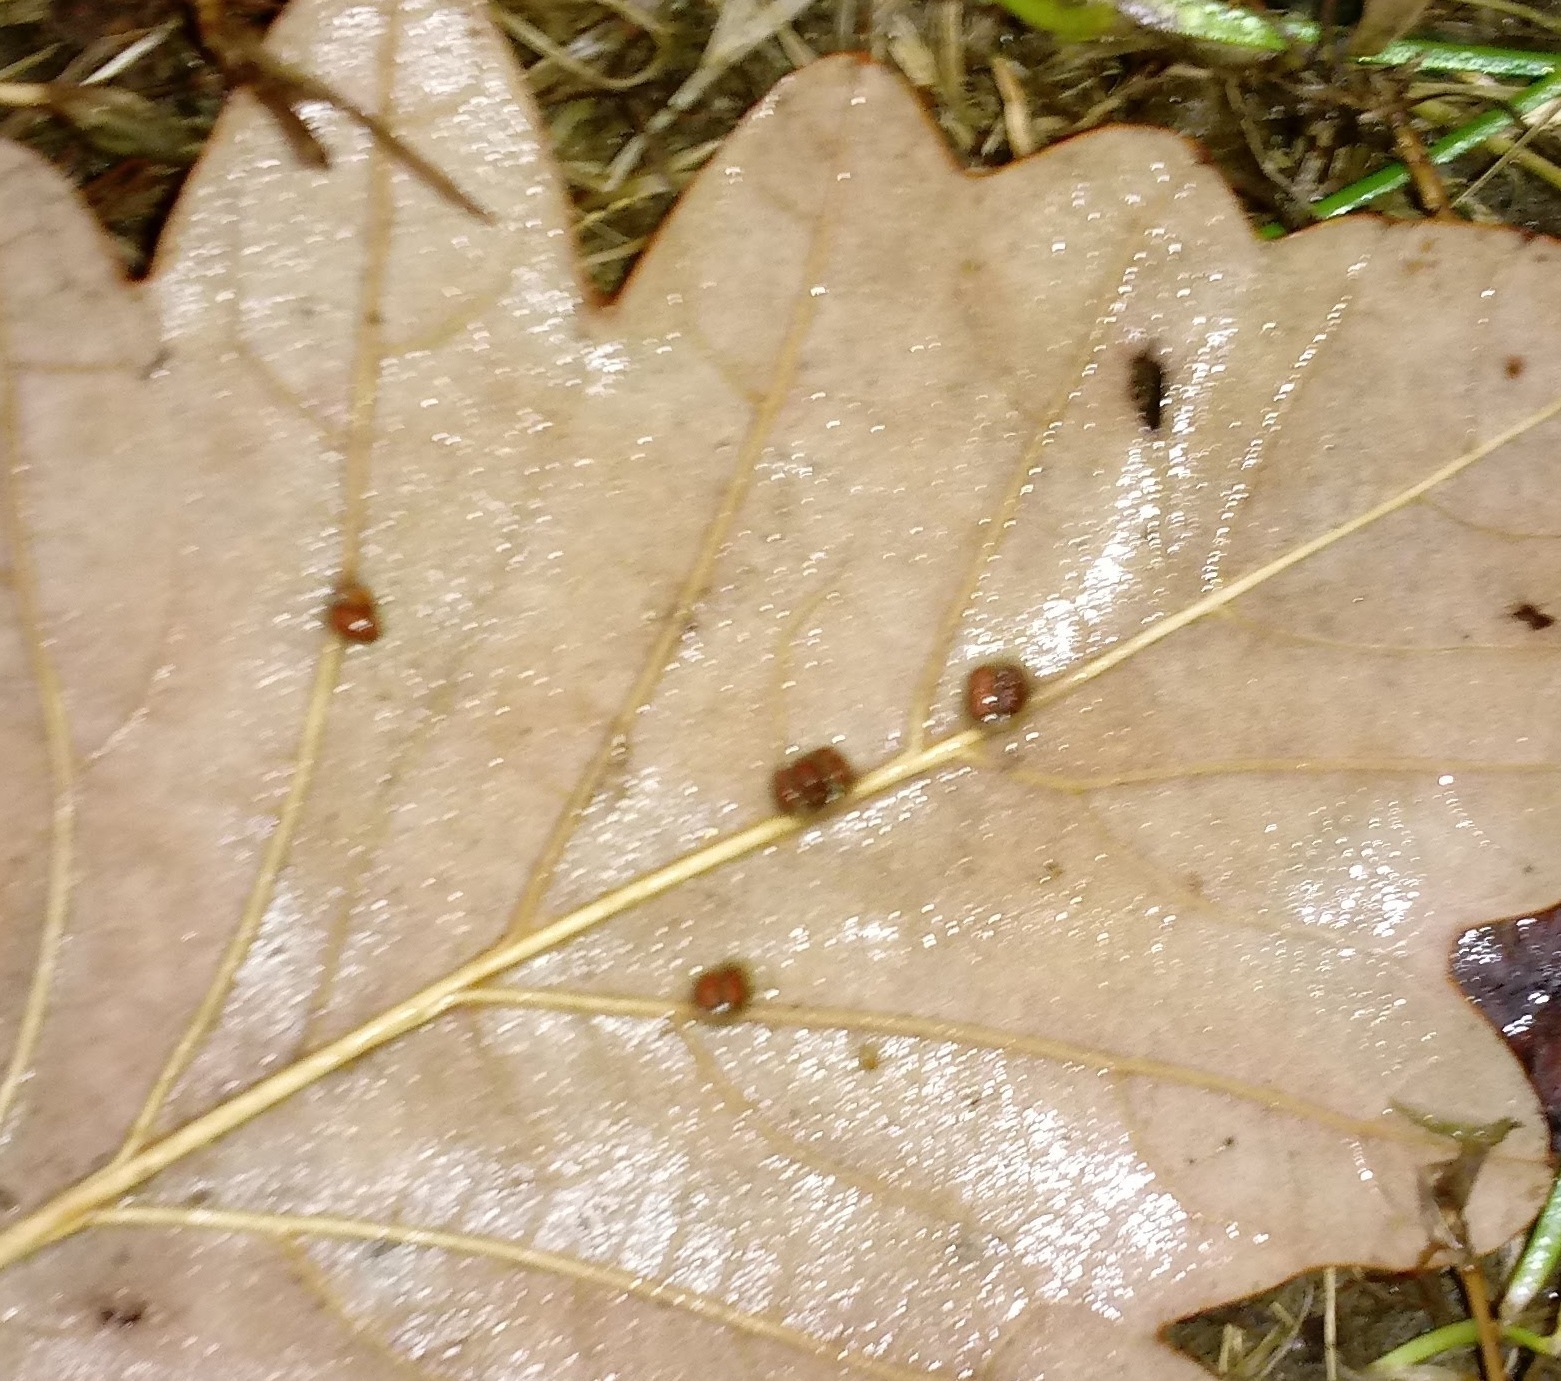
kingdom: Animalia
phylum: Arthropoda
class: Insecta
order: Hymenoptera
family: Cynipidae
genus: Andricus
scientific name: Andricus Druon ignotum
